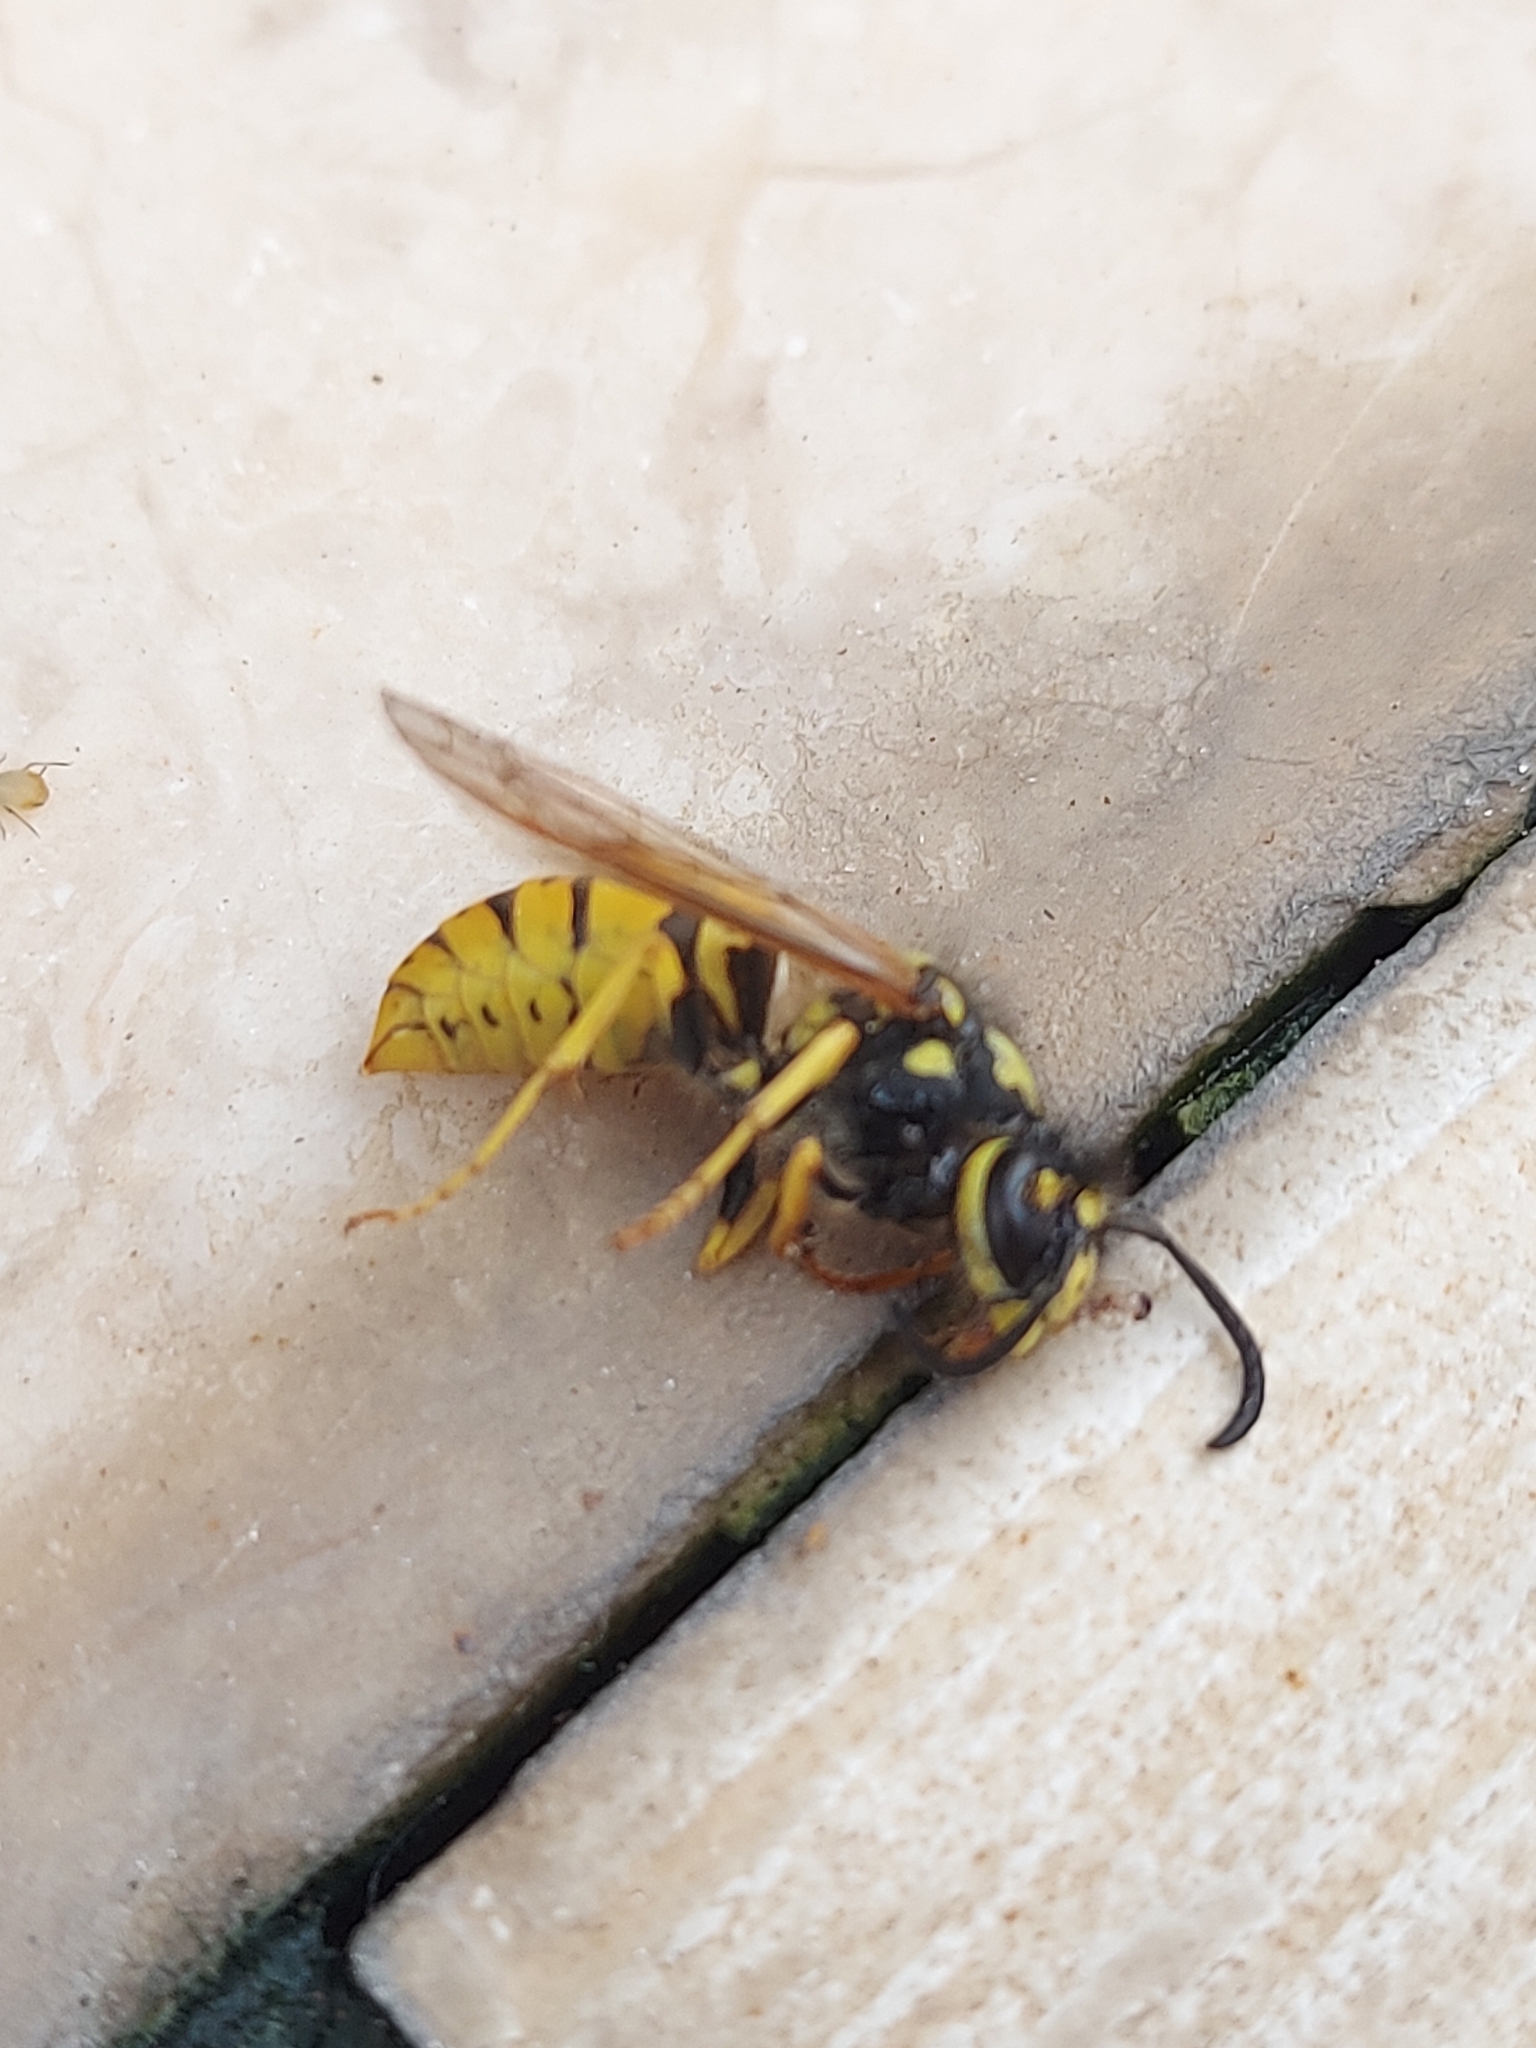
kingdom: Animalia
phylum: Arthropoda
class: Insecta
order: Hymenoptera
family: Vespidae
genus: Vespula
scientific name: Vespula germanica
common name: German wasp
